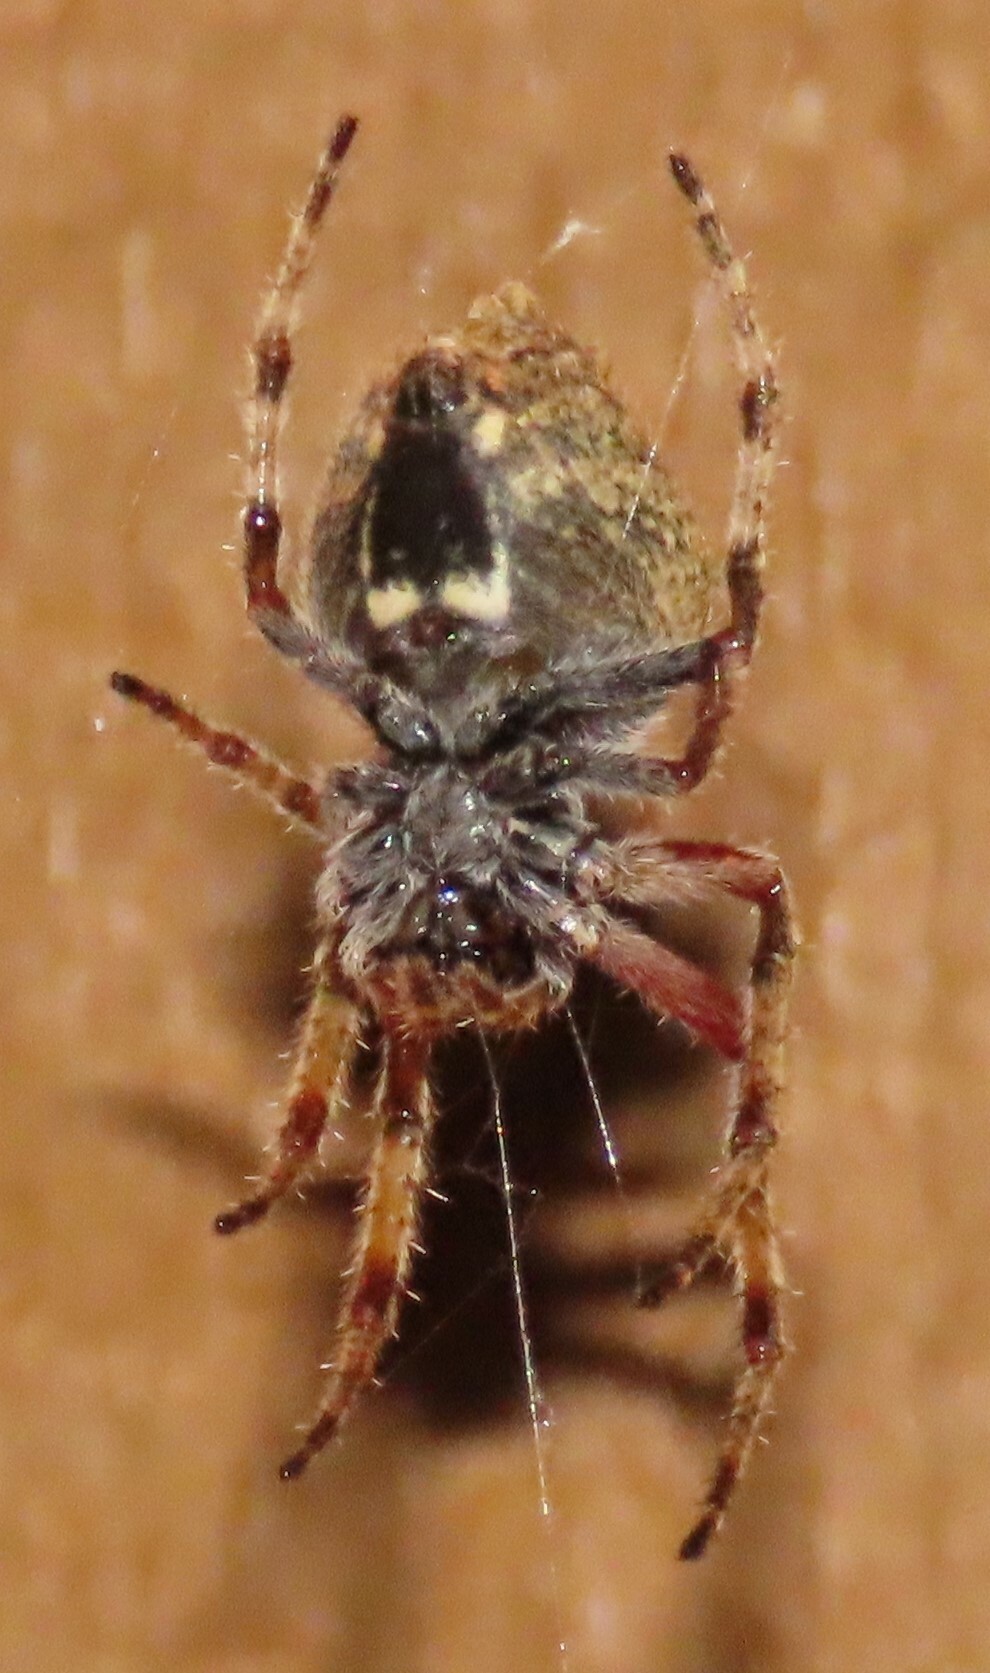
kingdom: Animalia
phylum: Arthropoda
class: Arachnida
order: Araneae
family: Araneidae
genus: Eriophora
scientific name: Eriophora pustulosa
